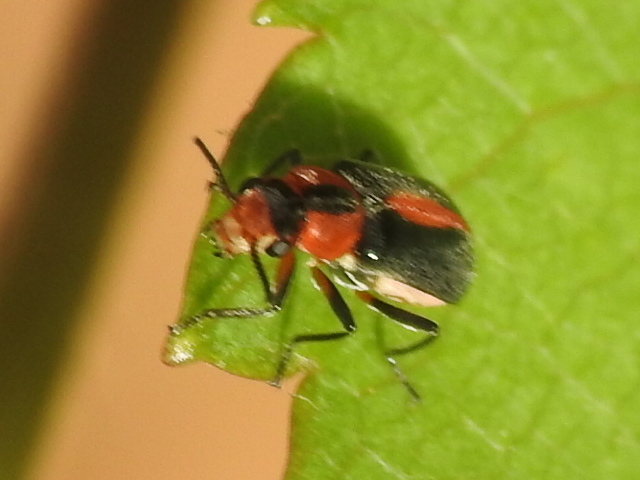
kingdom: Animalia
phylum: Arthropoda
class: Insecta
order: Coleoptera
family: Malachiidae
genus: Attalus
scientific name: Attalus
